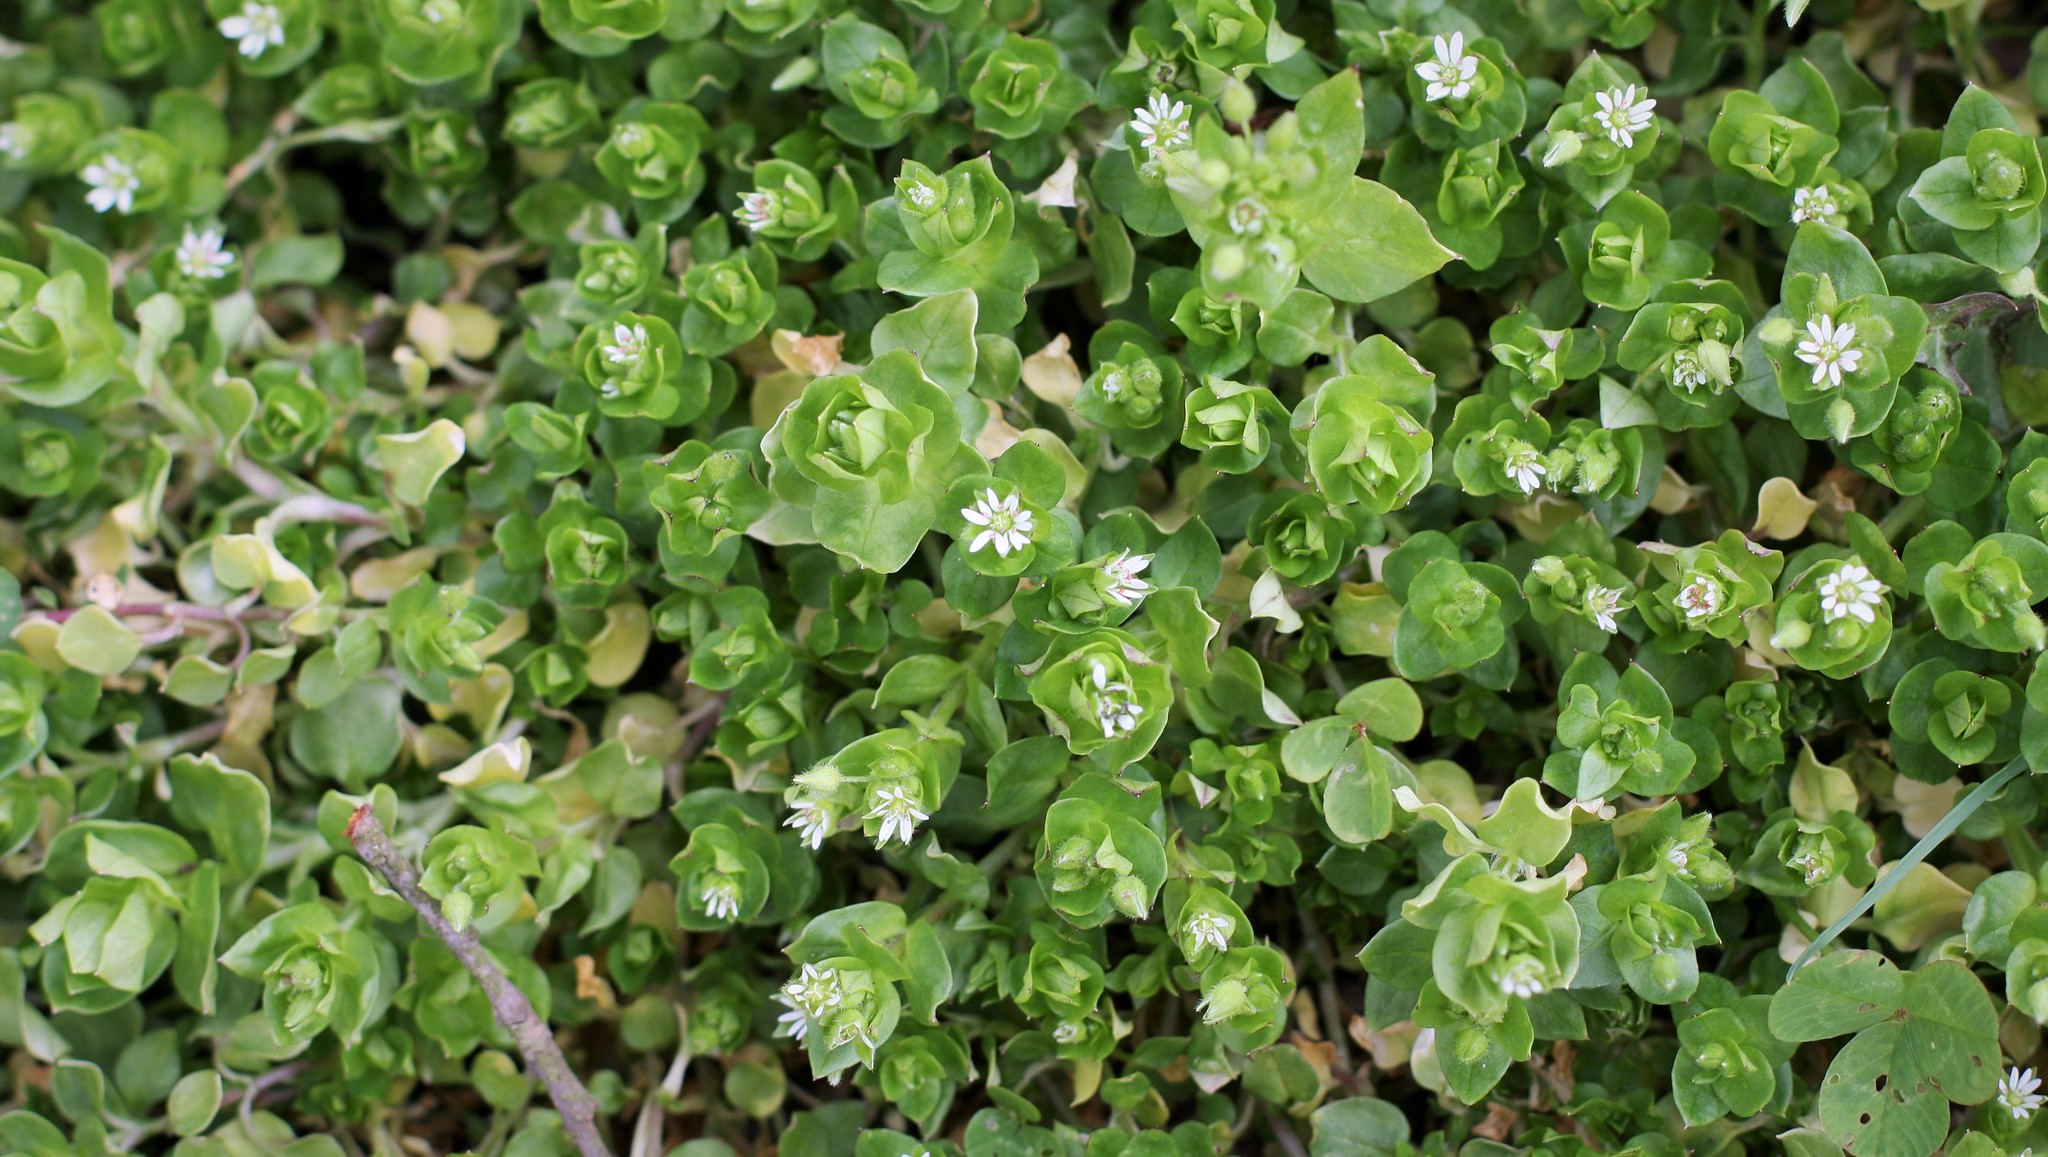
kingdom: Plantae
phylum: Tracheophyta
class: Magnoliopsida
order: Caryophyllales
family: Caryophyllaceae
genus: Stellaria
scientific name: Stellaria media
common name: Common chickweed
